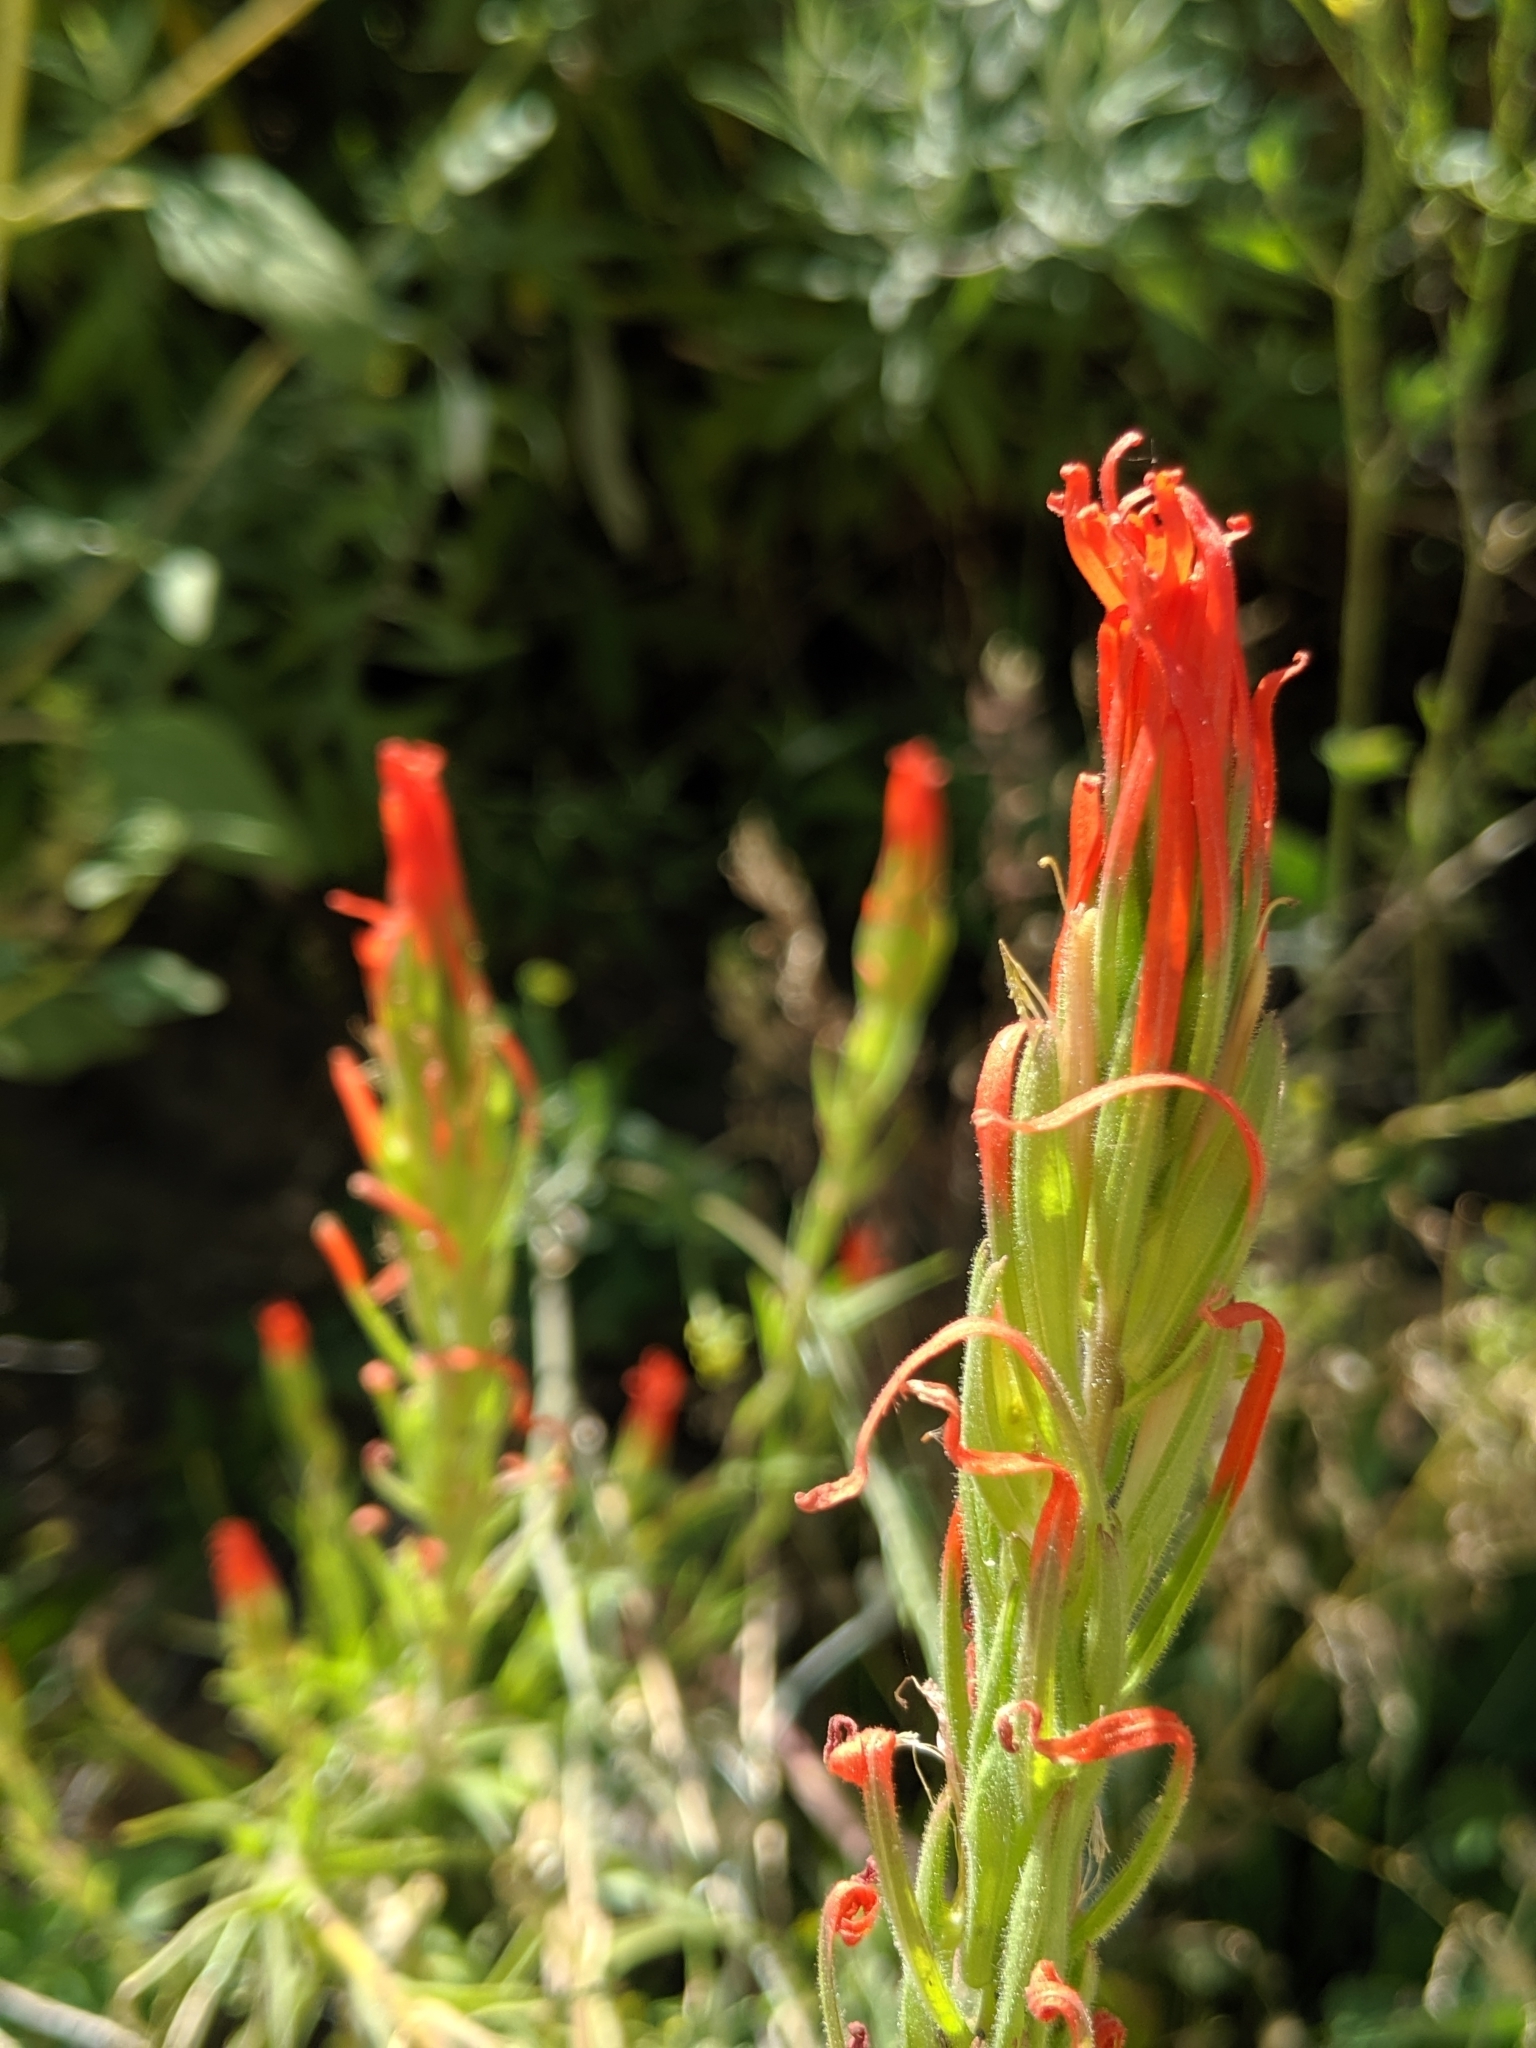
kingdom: Plantae
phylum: Tracheophyta
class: Magnoliopsida
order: Lamiales
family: Orobanchaceae
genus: Castilleja
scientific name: Castilleja minor
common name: Seep paintbrush
